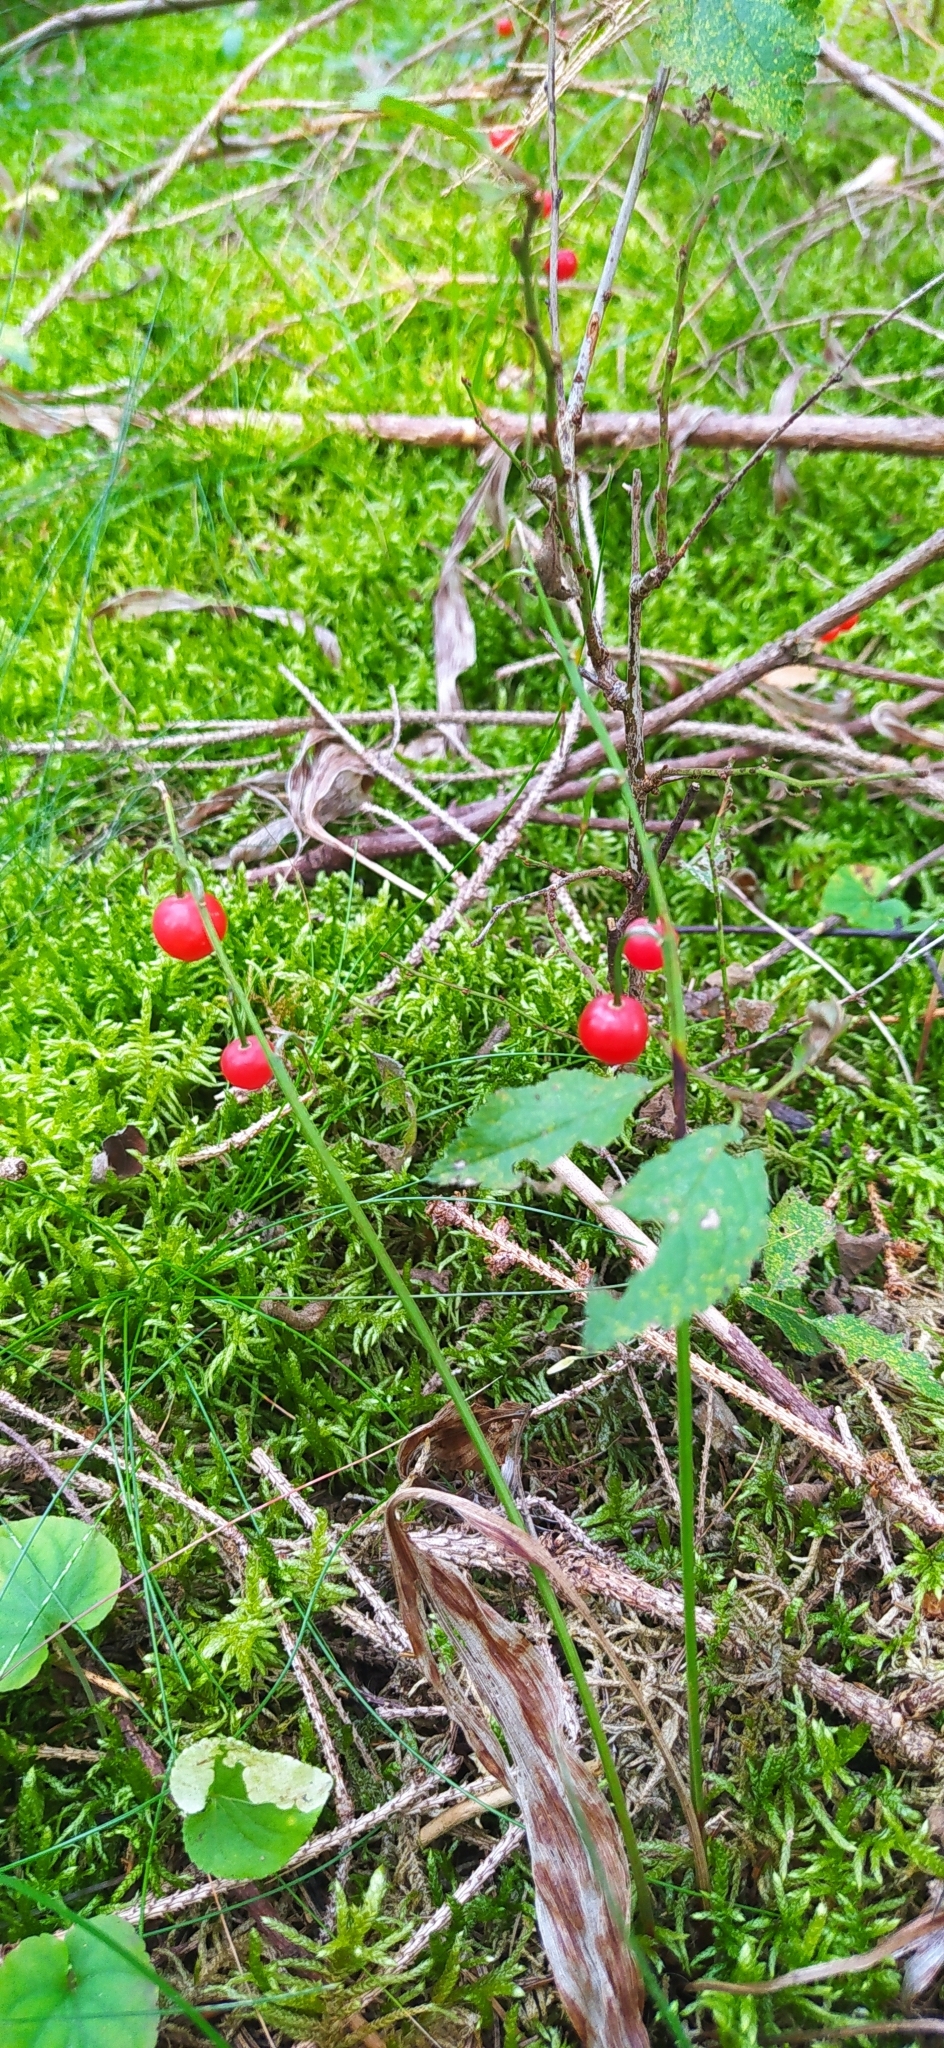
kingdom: Plantae
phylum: Tracheophyta
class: Liliopsida
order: Asparagales
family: Asparagaceae
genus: Convallaria
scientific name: Convallaria majalis
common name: Lily-of-the-valley
